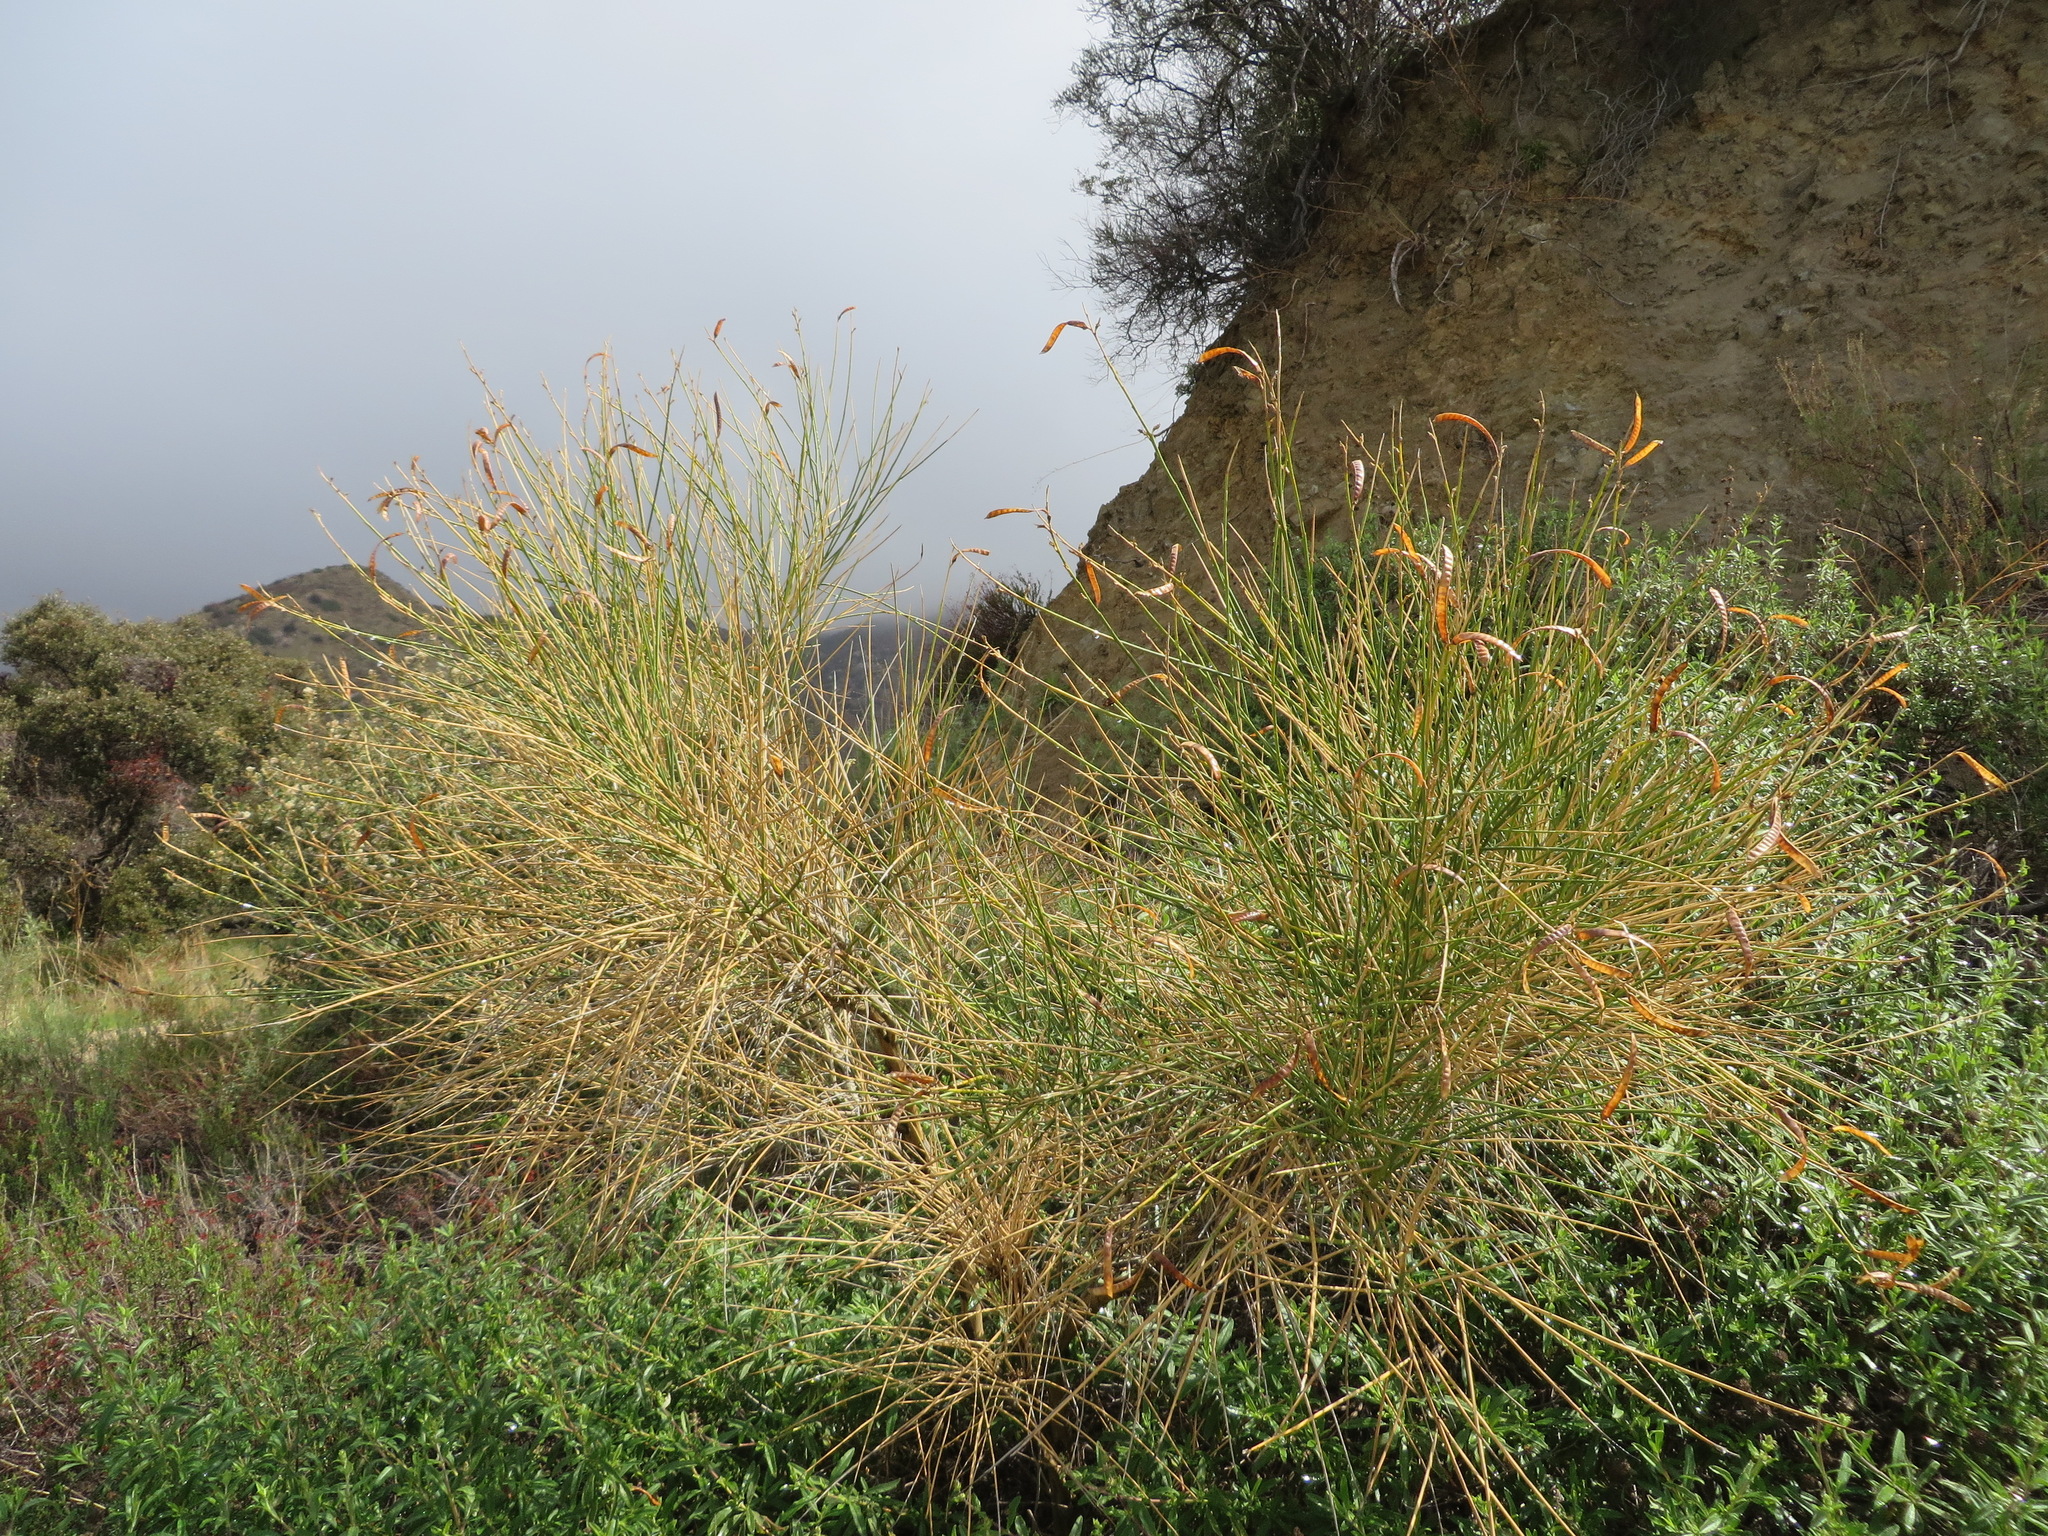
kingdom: Plantae
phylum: Tracheophyta
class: Magnoliopsida
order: Fabales
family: Fabaceae
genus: Spartium
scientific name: Spartium junceum
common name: Spanish broom
